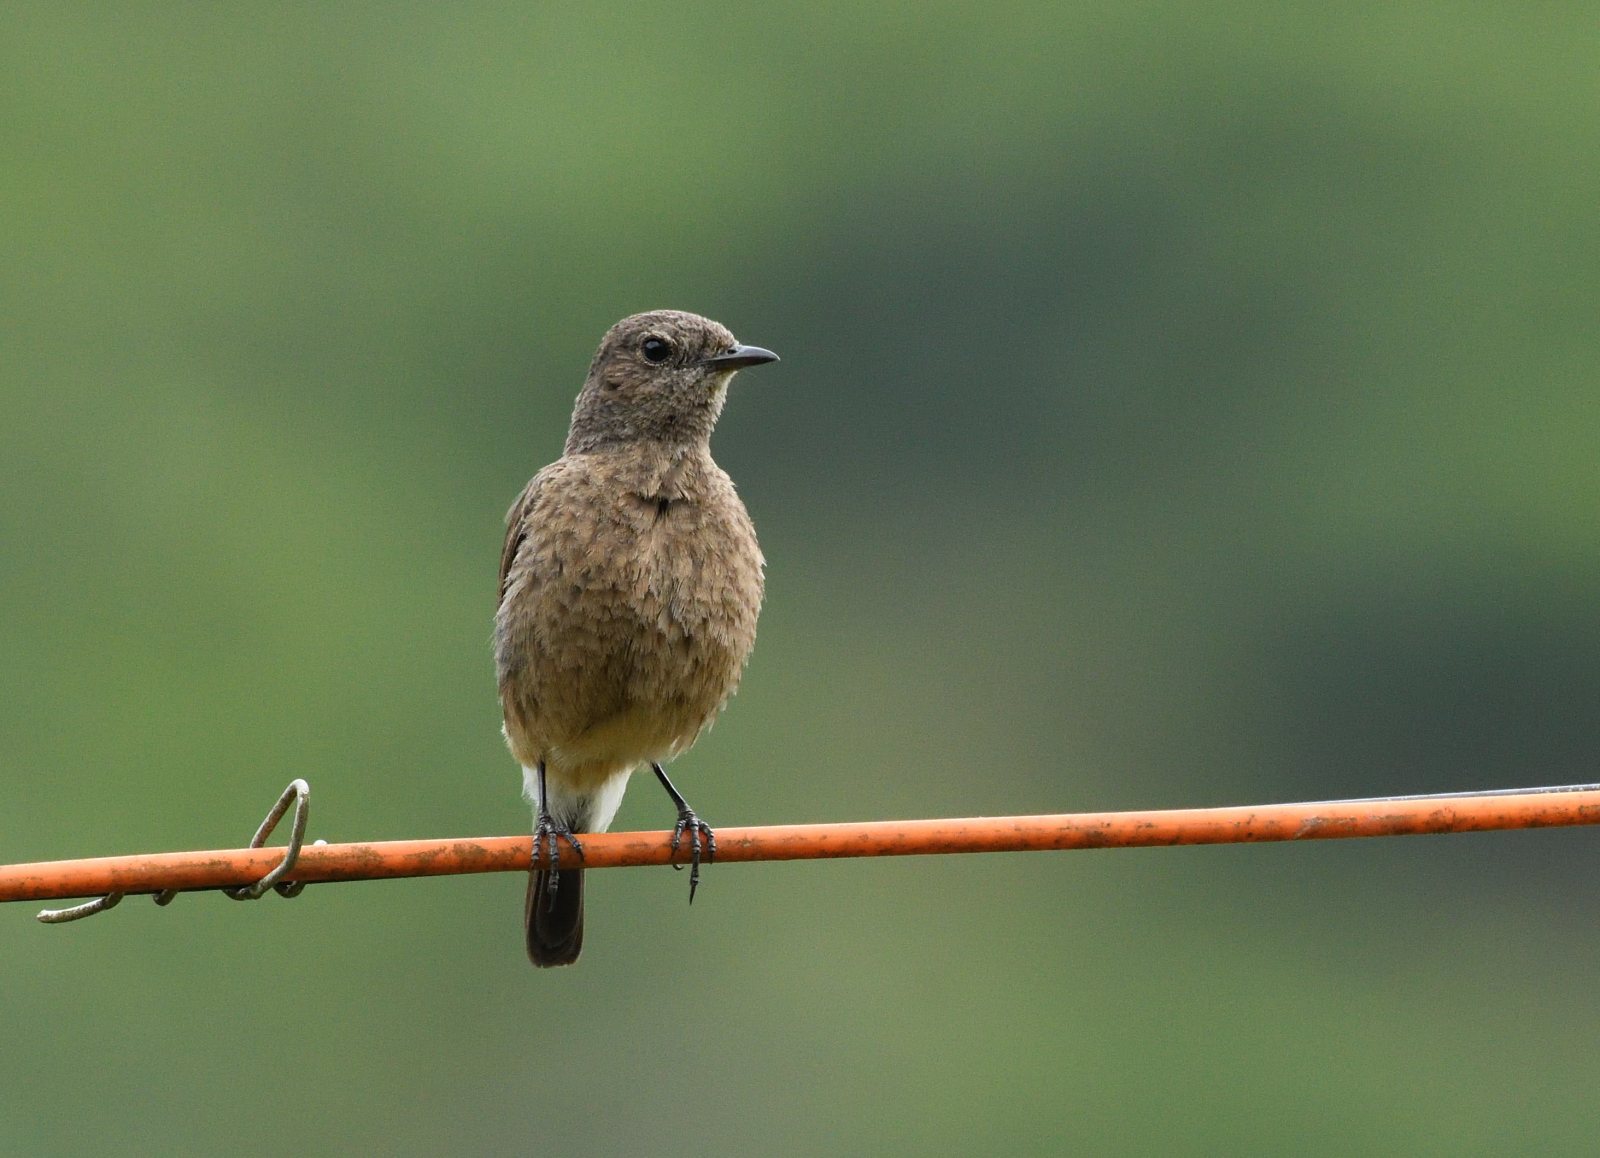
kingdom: Animalia
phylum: Chordata
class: Aves
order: Passeriformes
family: Muscicapidae
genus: Saxicola
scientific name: Saxicola caprata
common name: Pied bush chat
